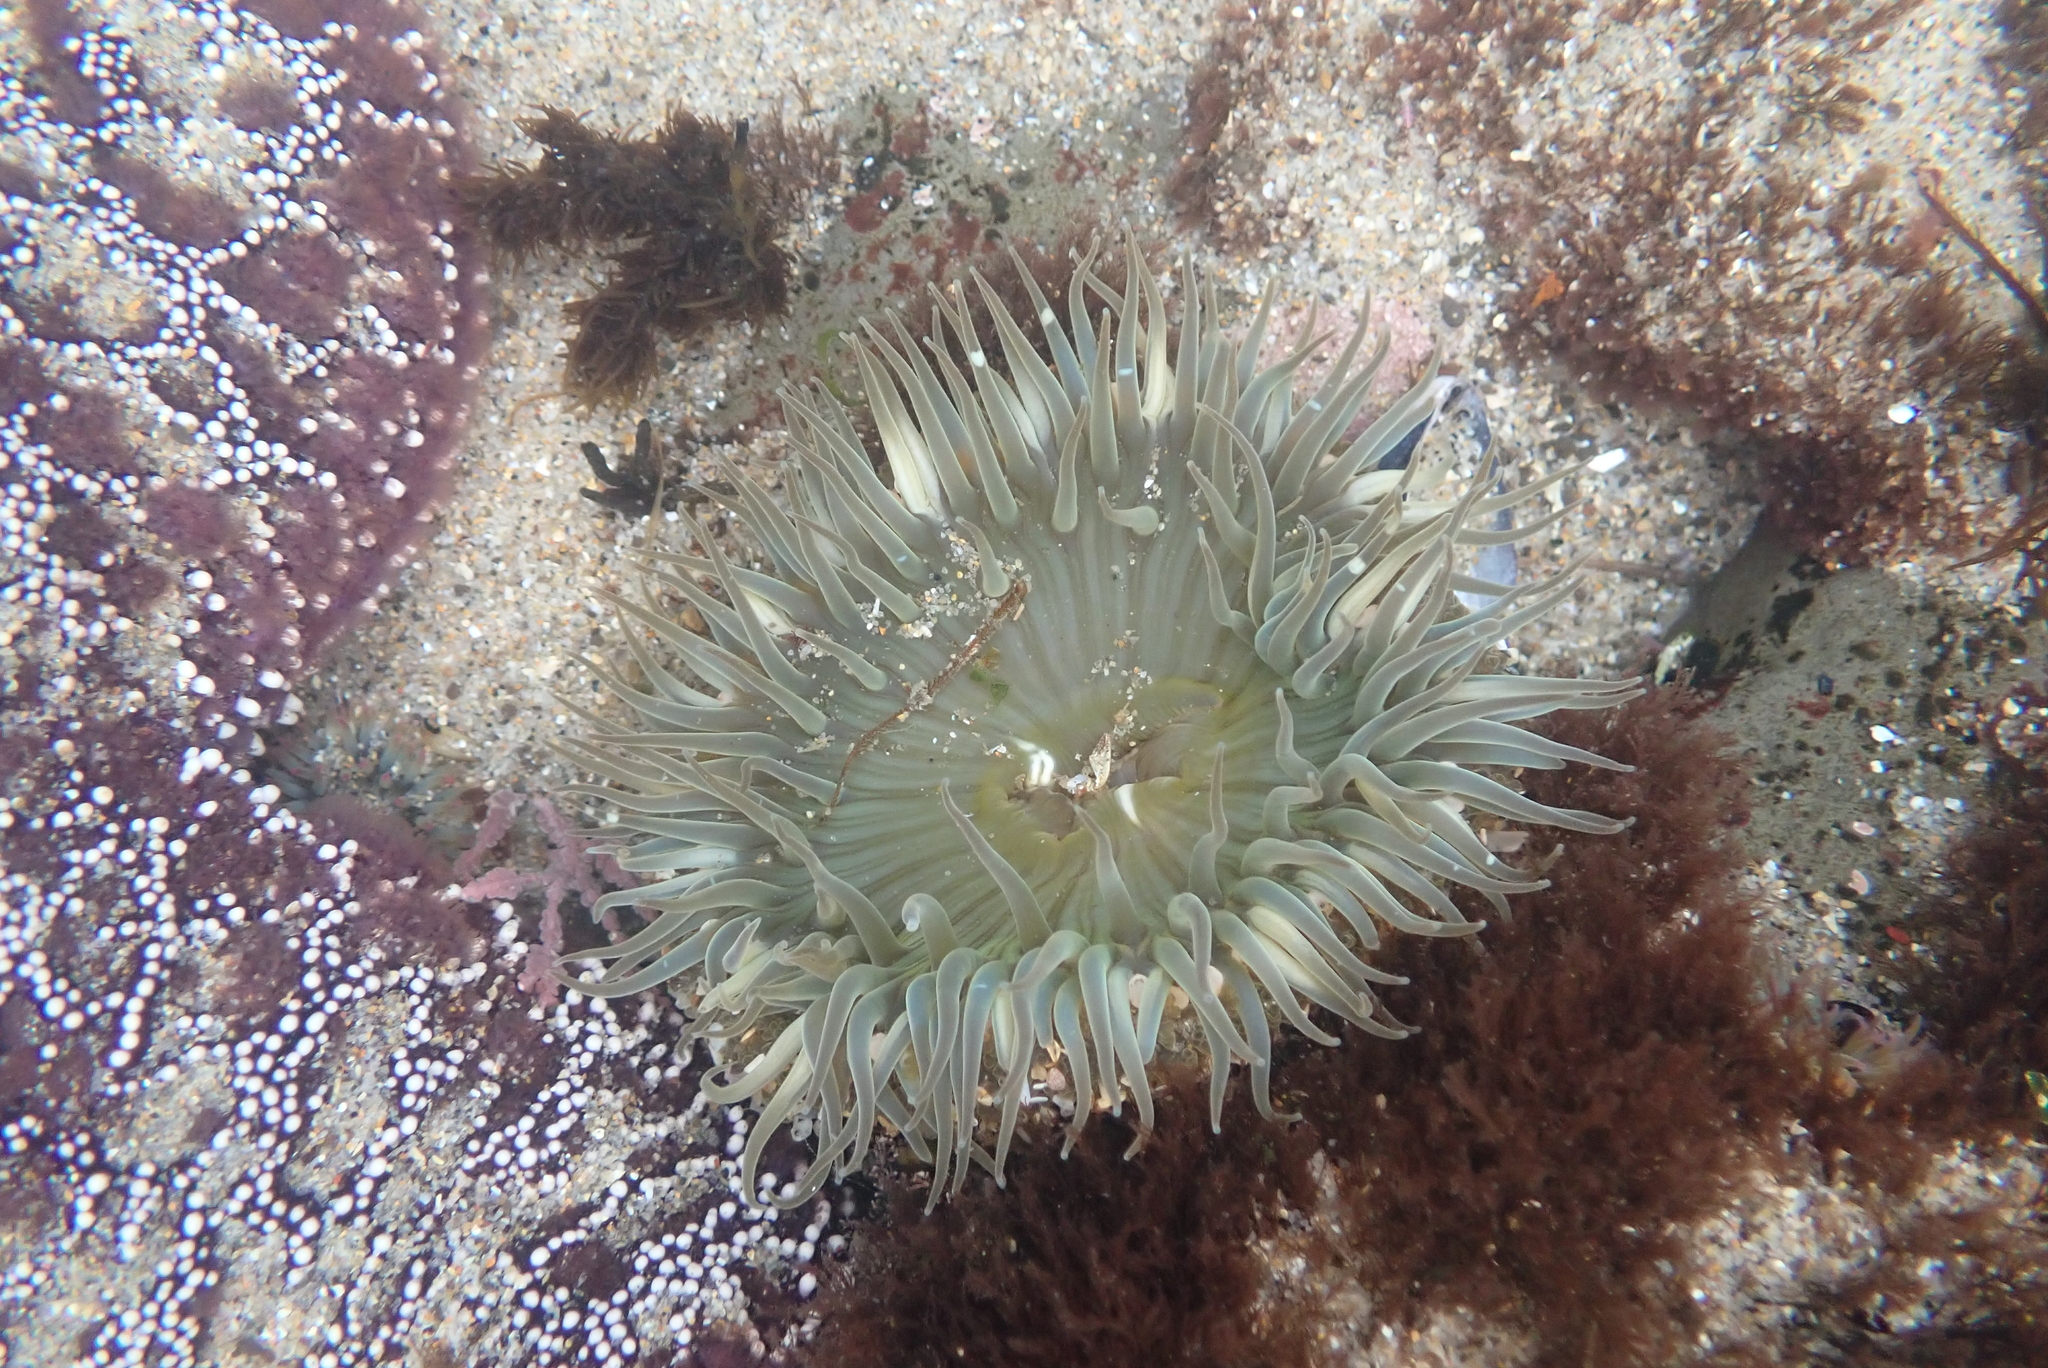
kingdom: Animalia
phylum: Cnidaria
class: Anthozoa
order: Actiniaria
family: Actiniidae
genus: Anthopleura
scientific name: Anthopleura sola
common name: Sun anemone
